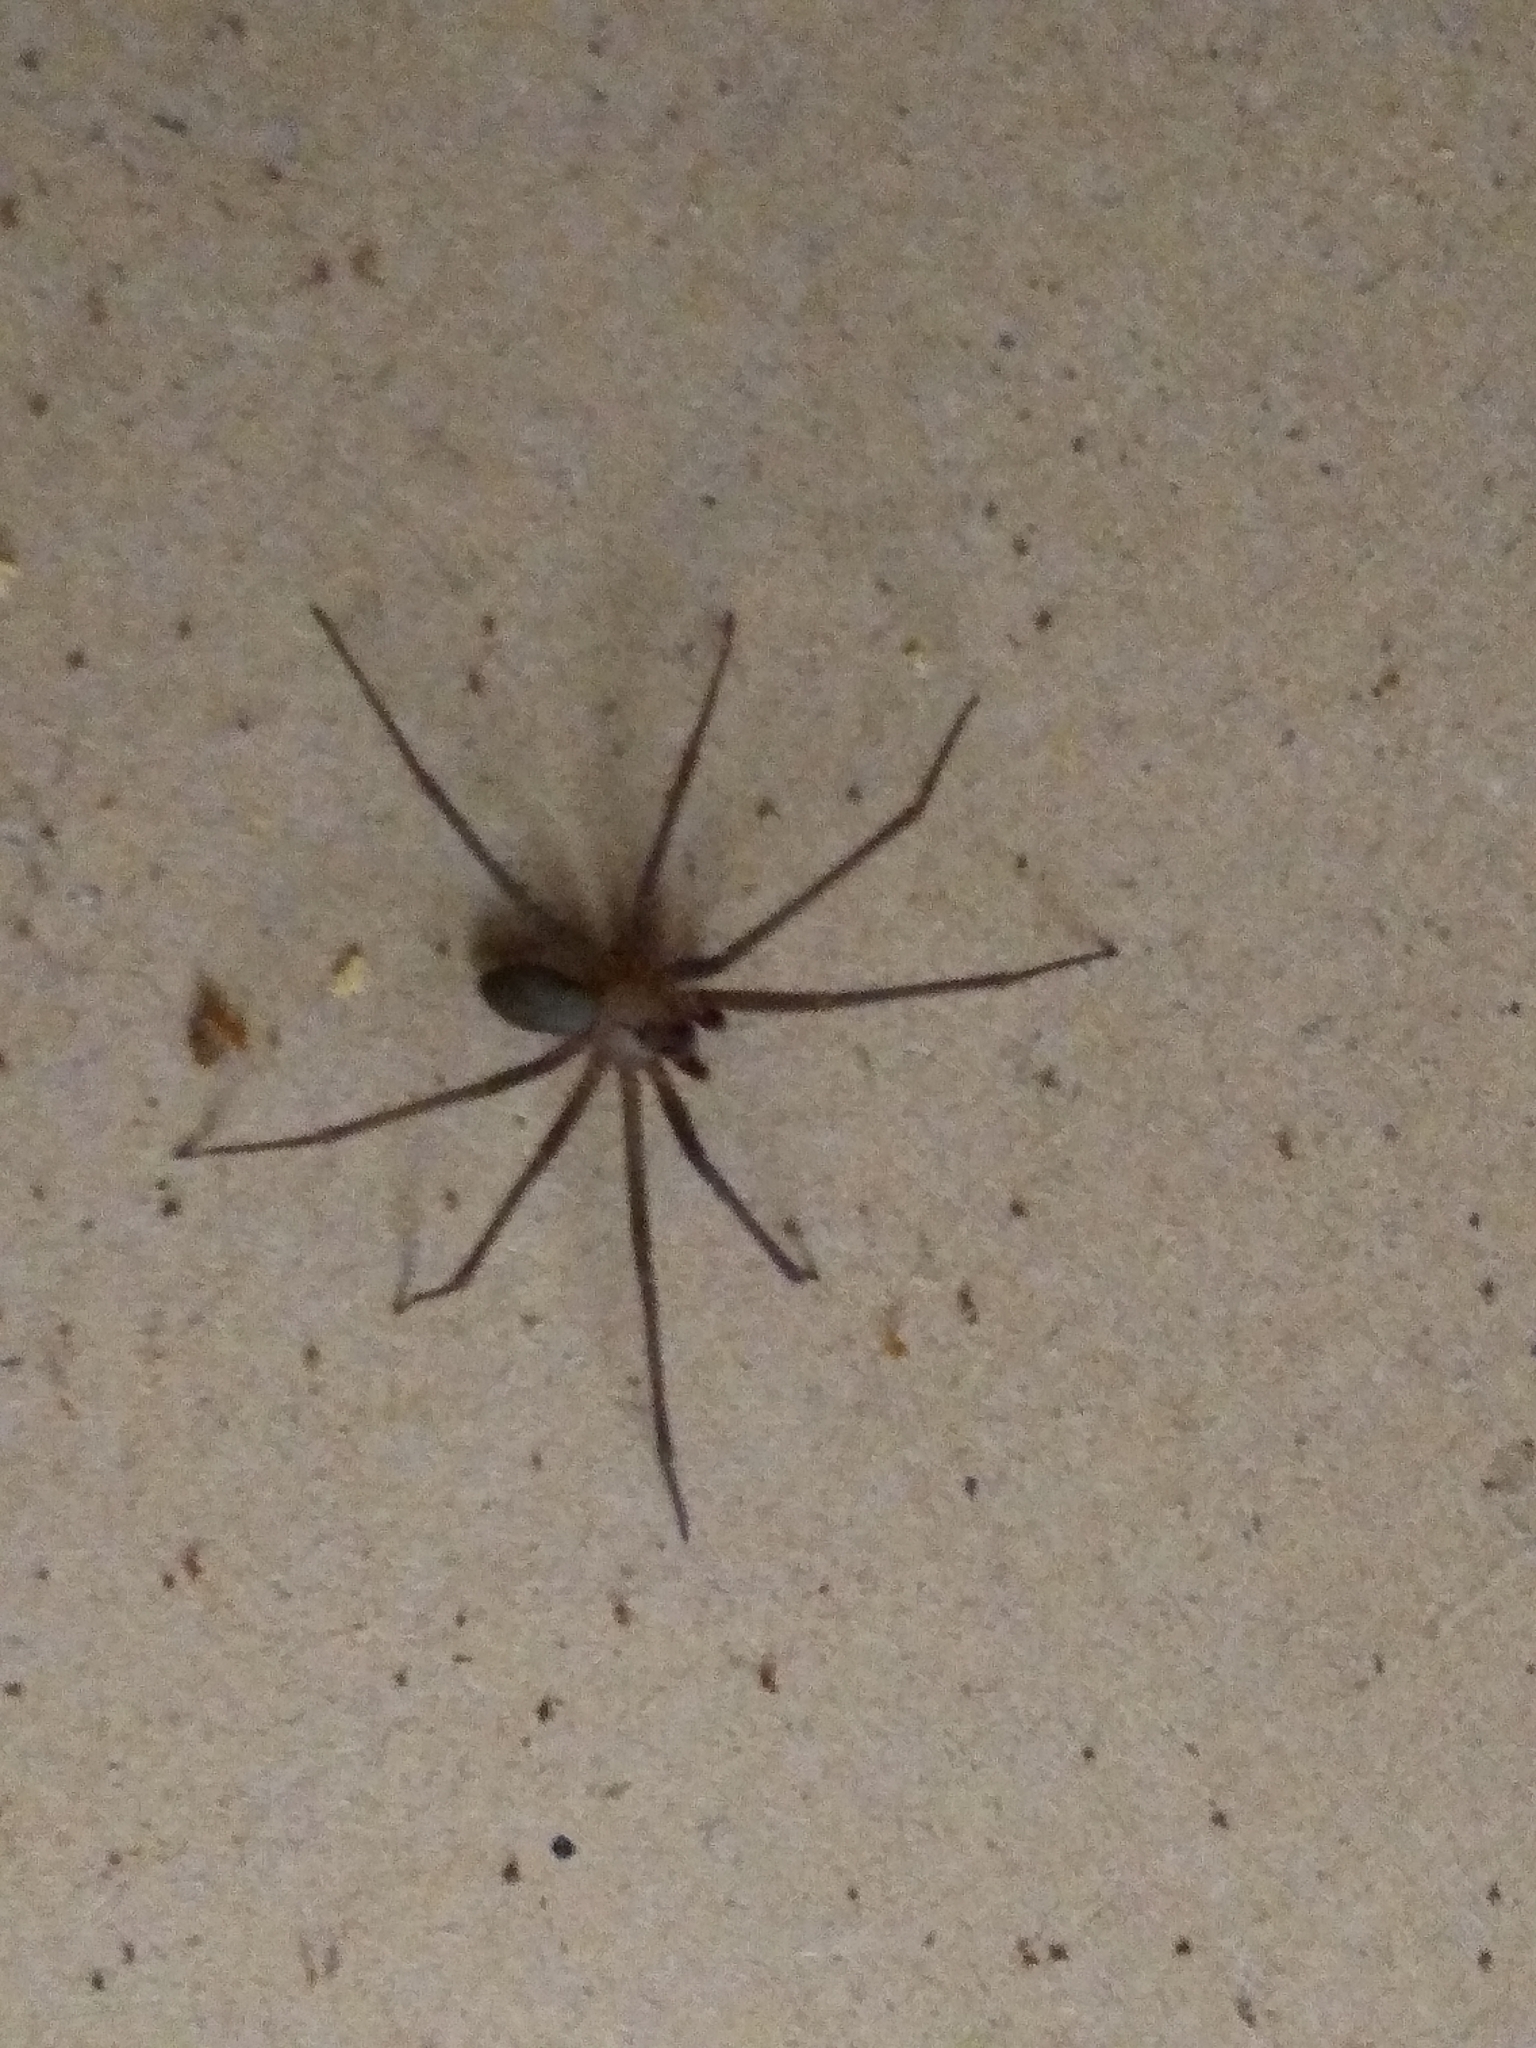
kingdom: Animalia
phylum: Arthropoda
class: Arachnida
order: Araneae
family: Sicariidae
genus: Loxosceles
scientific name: Loxosceles reclusa
